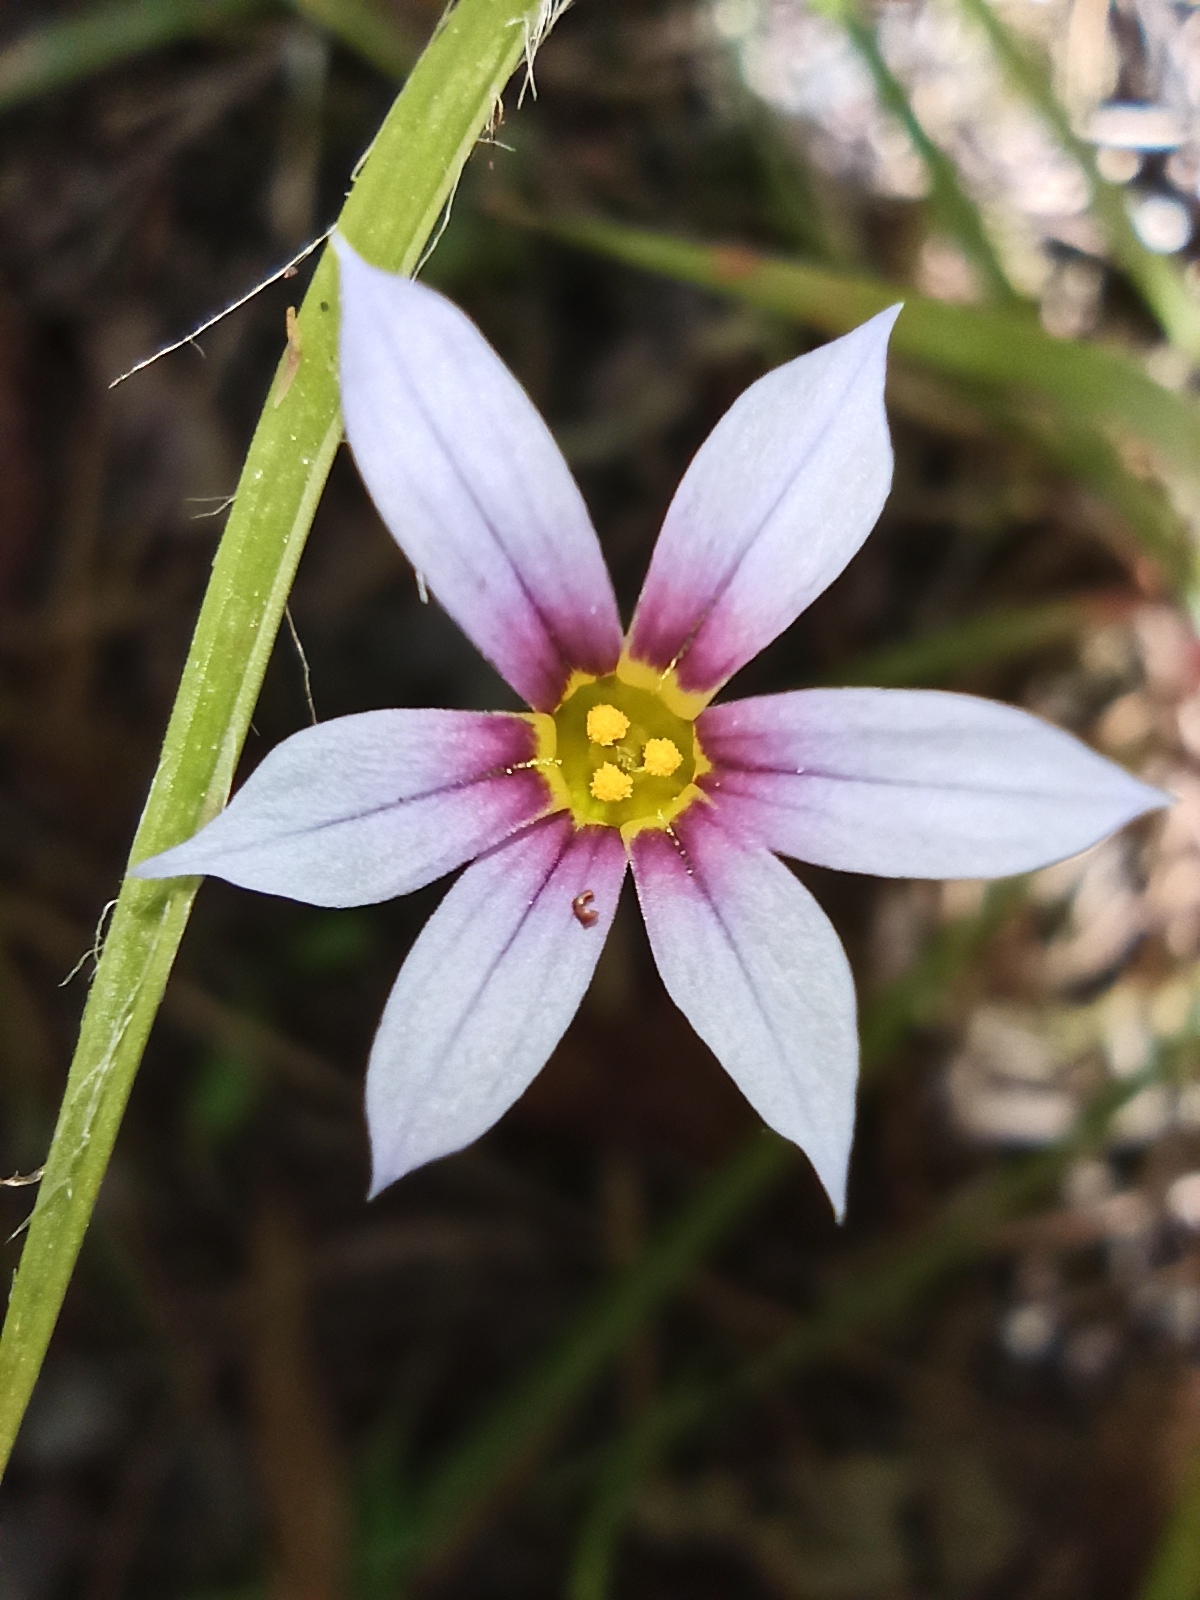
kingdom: Plantae
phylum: Tracheophyta
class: Liliopsida
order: Asparagales
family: Iridaceae
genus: Sisyrinchium
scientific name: Sisyrinchium micranthum
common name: Bermuda pigroot
